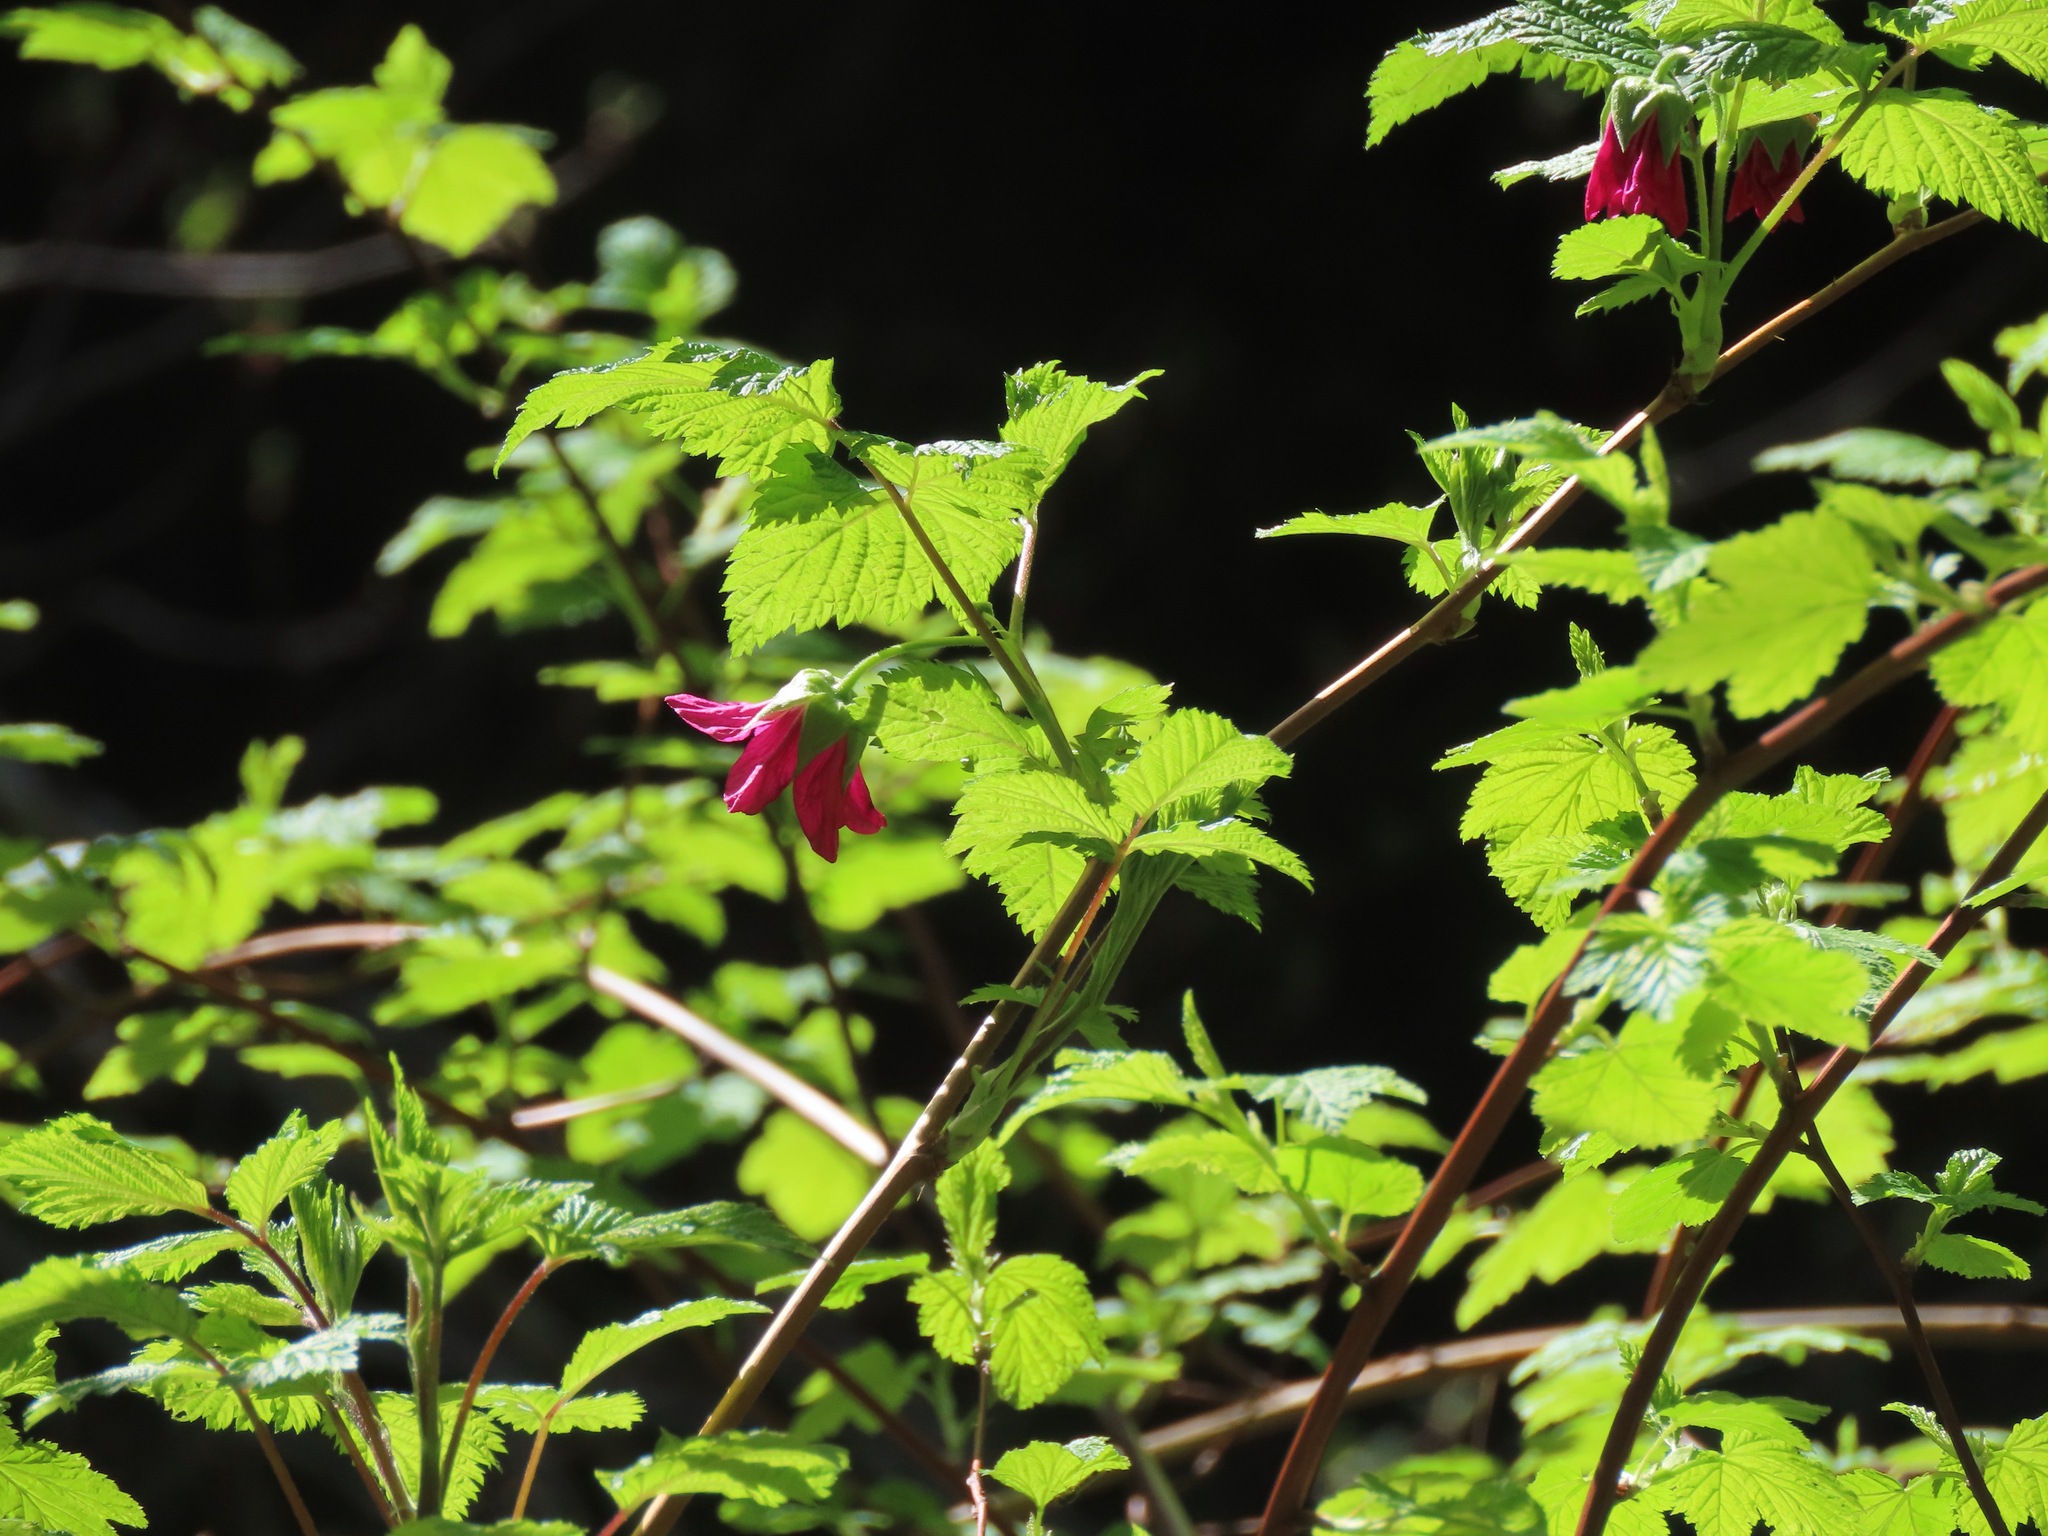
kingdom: Plantae
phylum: Tracheophyta
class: Magnoliopsida
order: Rosales
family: Rosaceae
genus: Rubus
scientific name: Rubus spectabilis
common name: Salmonberry
